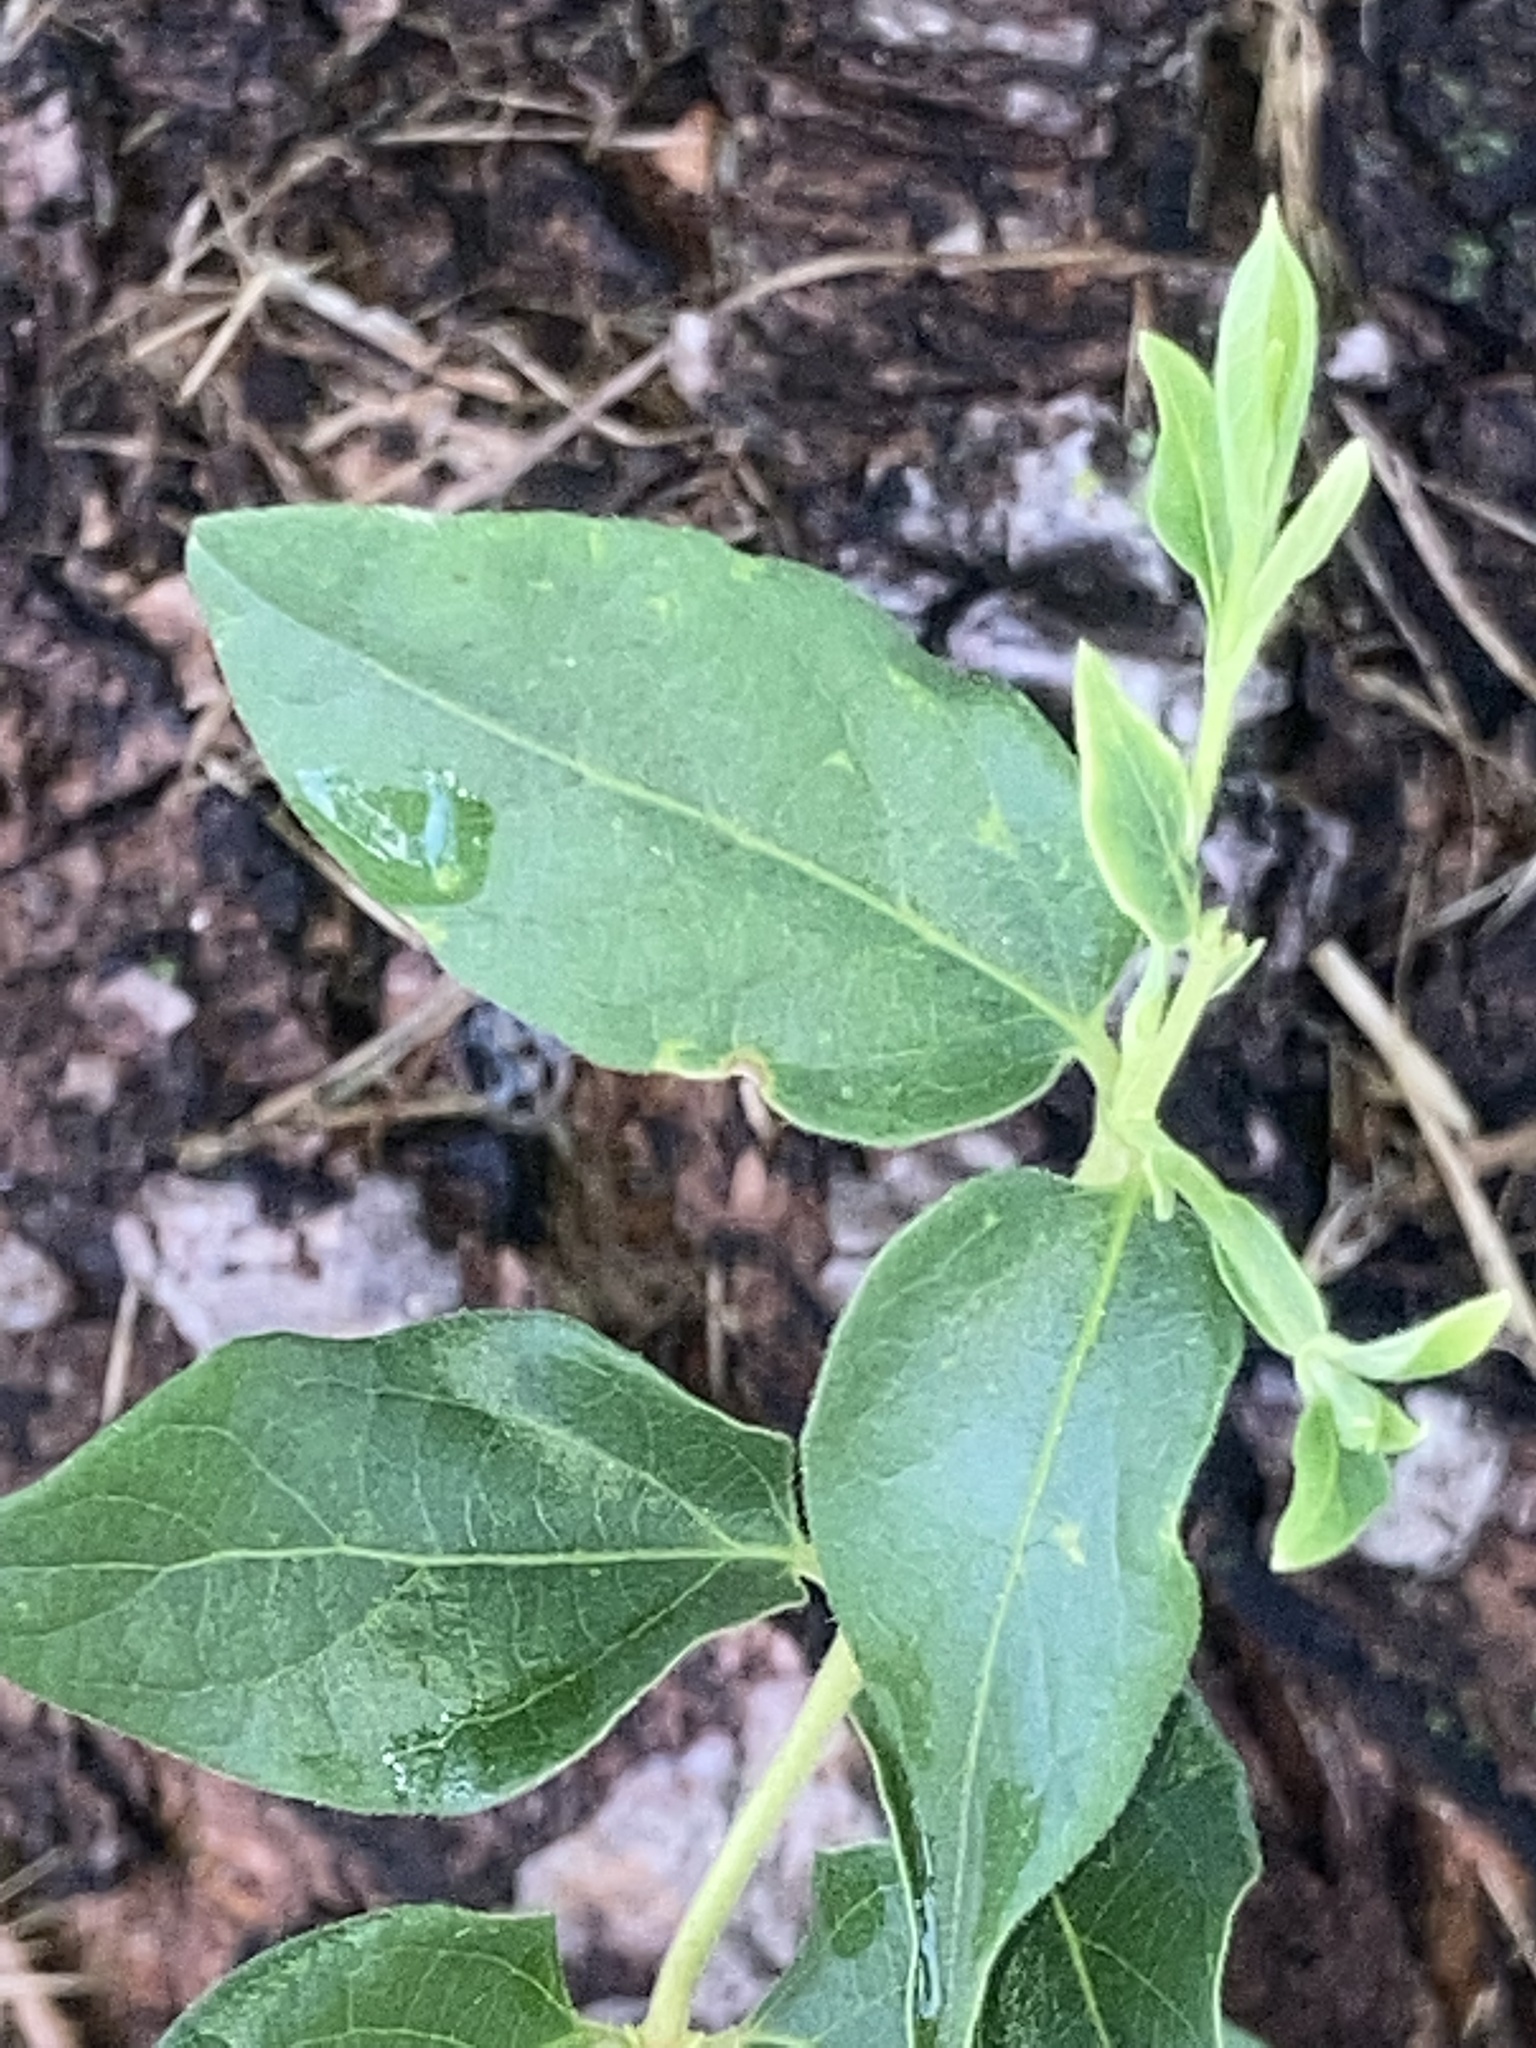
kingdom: Plantae
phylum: Tracheophyta
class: Magnoliopsida
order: Dipsacales
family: Caprifoliaceae
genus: Lonicera
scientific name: Lonicera japonica
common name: Japanese honeysuckle
